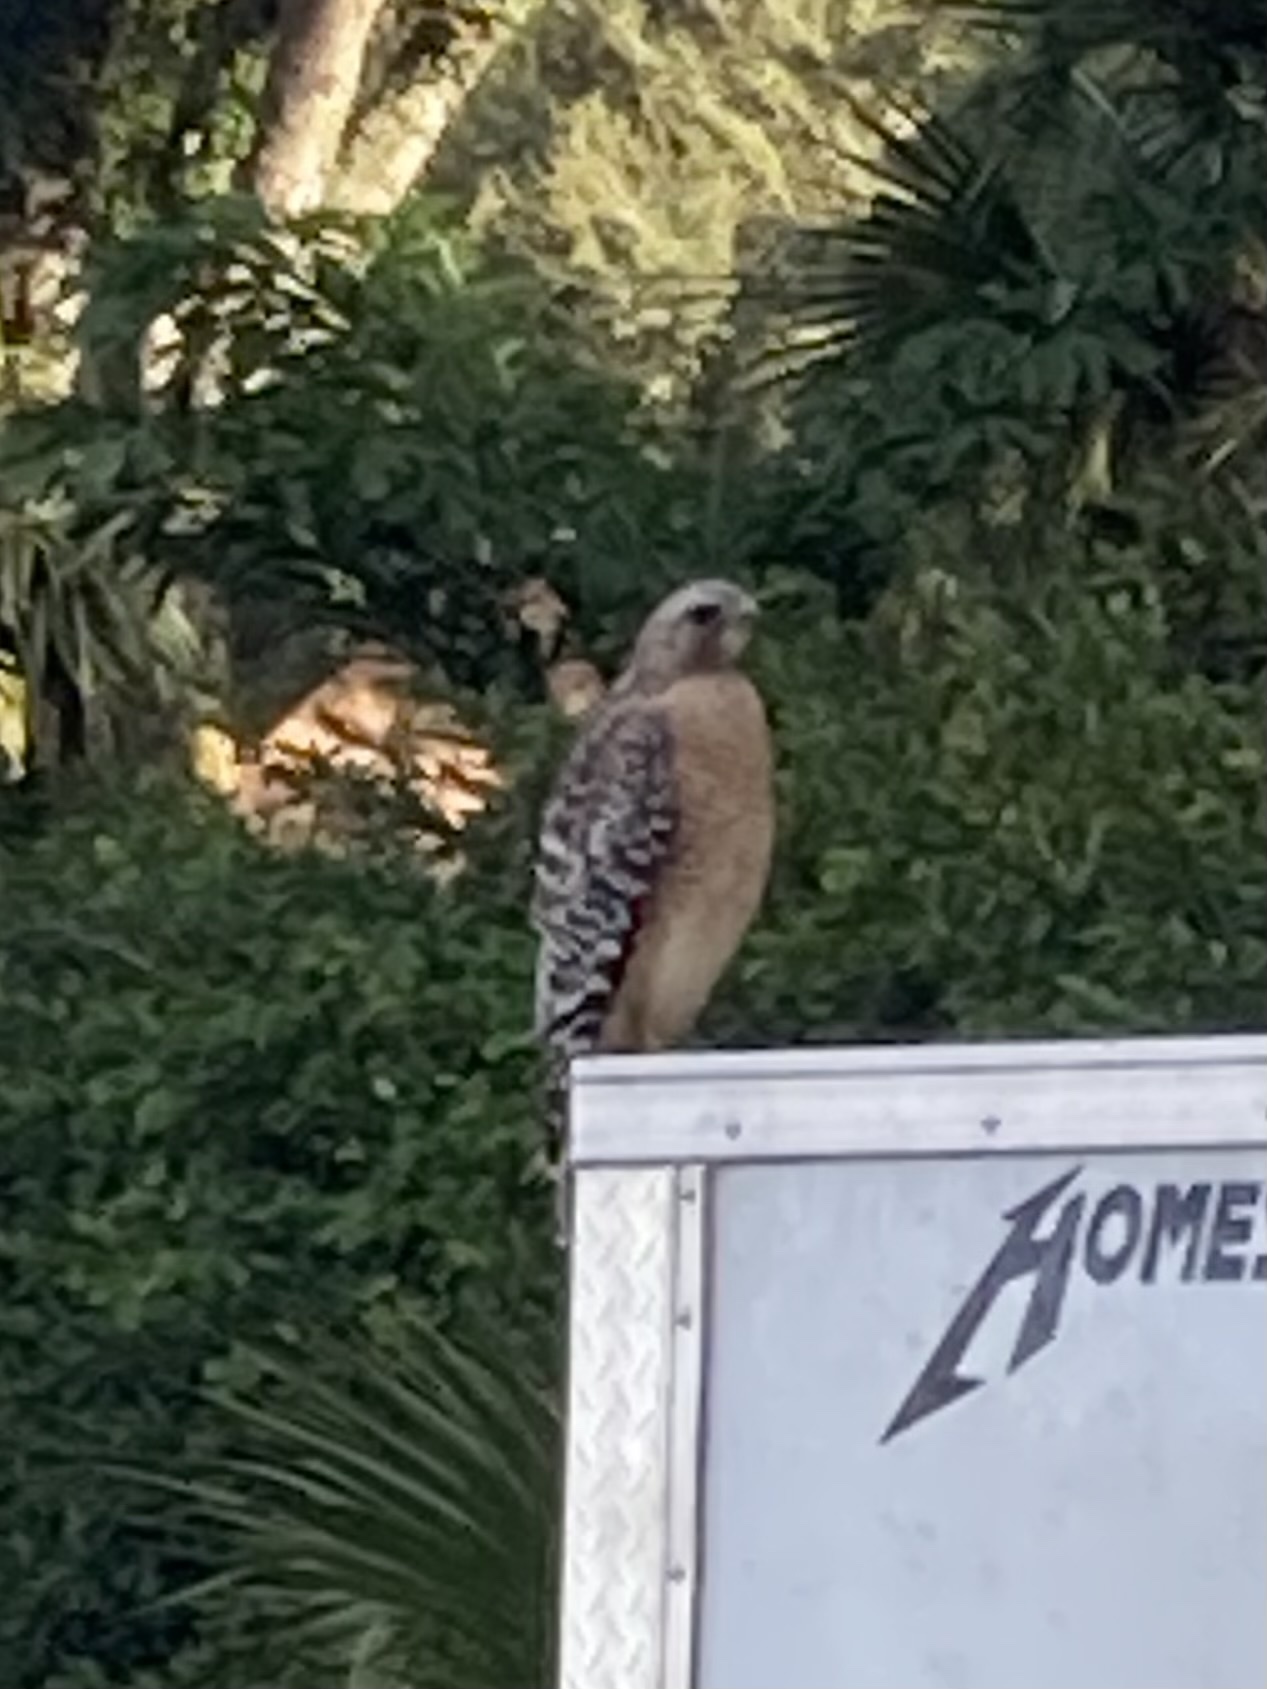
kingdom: Animalia
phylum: Chordata
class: Aves
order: Accipitriformes
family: Accipitridae
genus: Buteo
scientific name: Buteo lineatus
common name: Red-shouldered hawk
